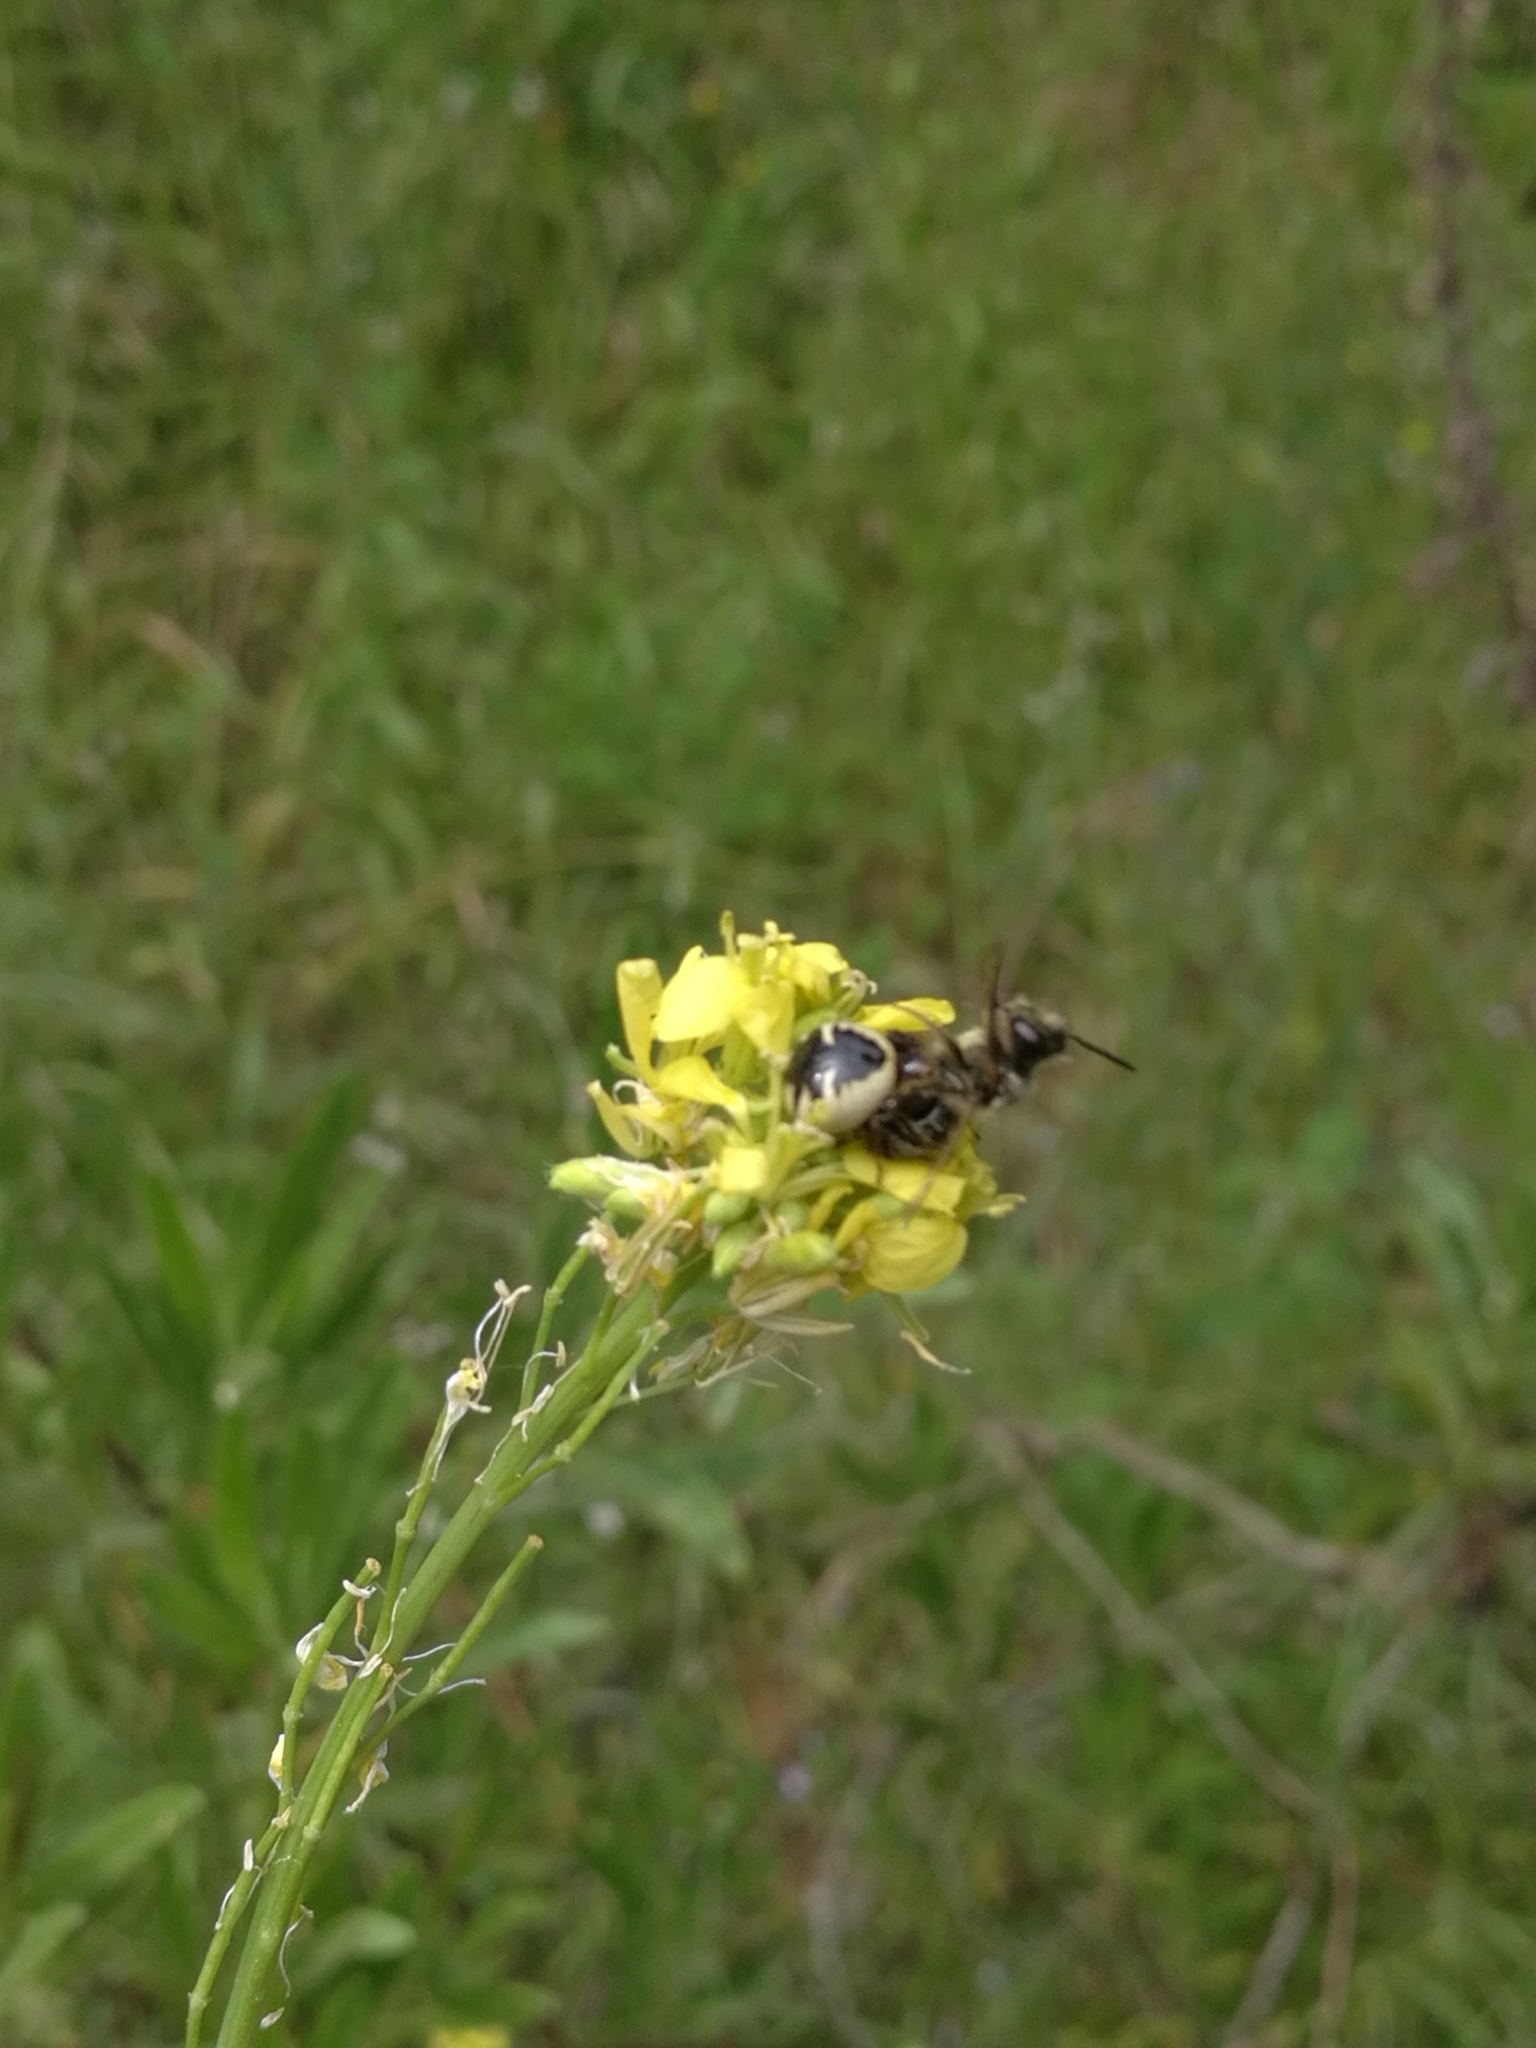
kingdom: Animalia
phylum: Arthropoda
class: Arachnida
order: Araneae
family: Thomisidae
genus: Synema
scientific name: Synema globosum
